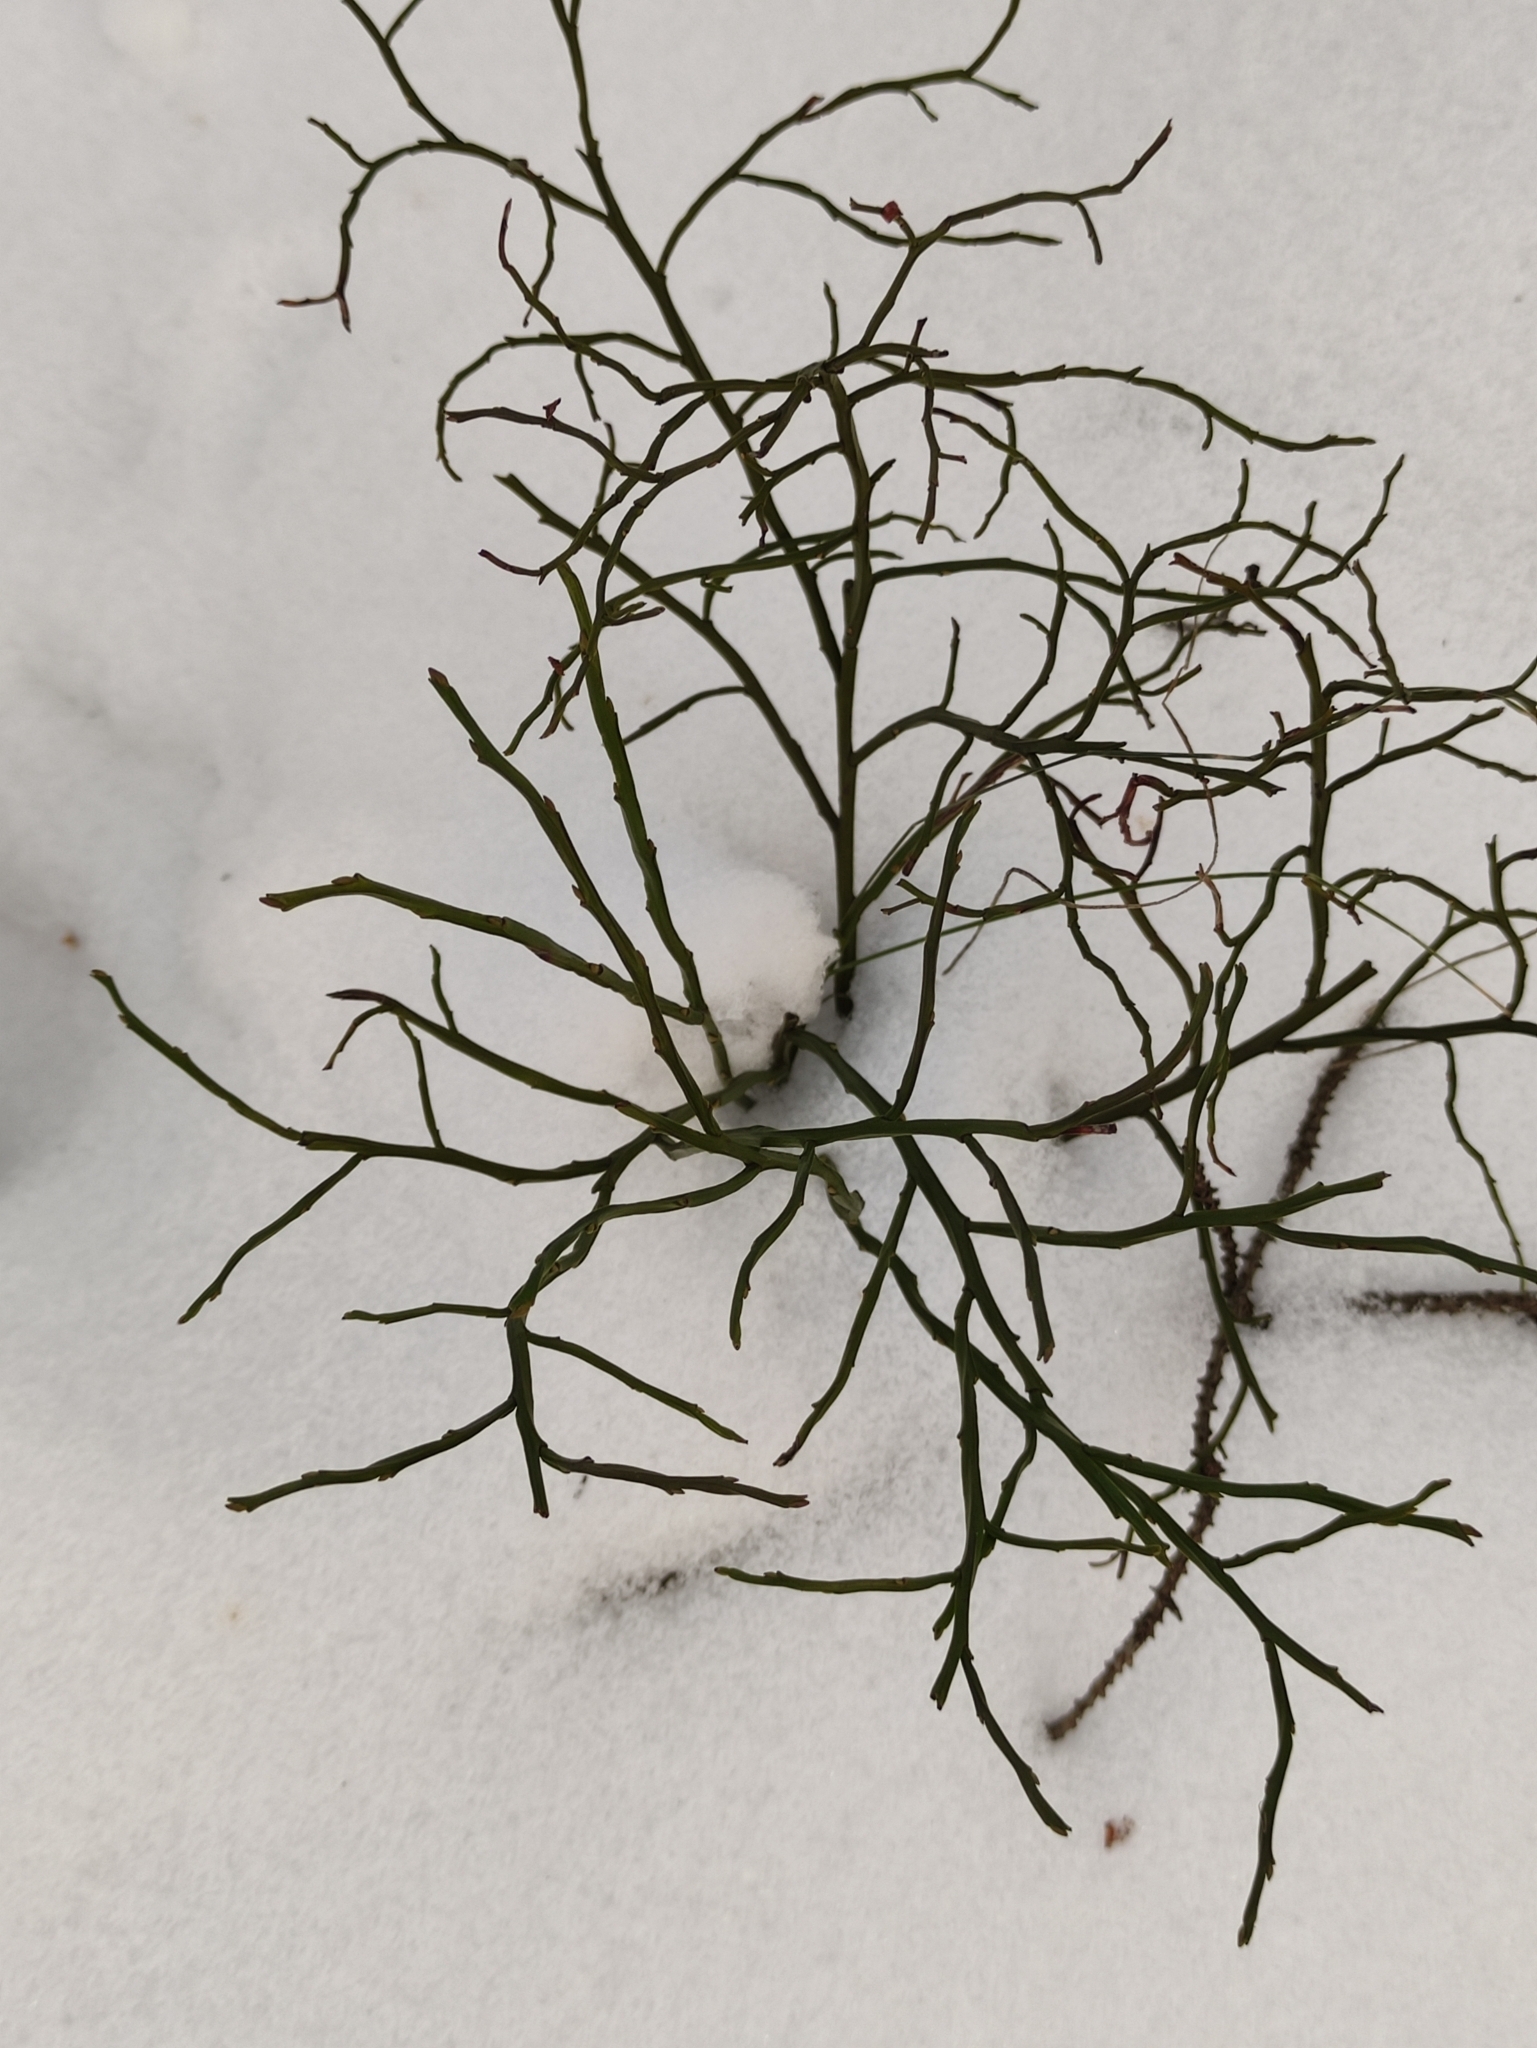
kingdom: Plantae
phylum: Tracheophyta
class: Magnoliopsida
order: Ericales
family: Ericaceae
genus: Vaccinium
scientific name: Vaccinium myrtillus
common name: Bilberry
